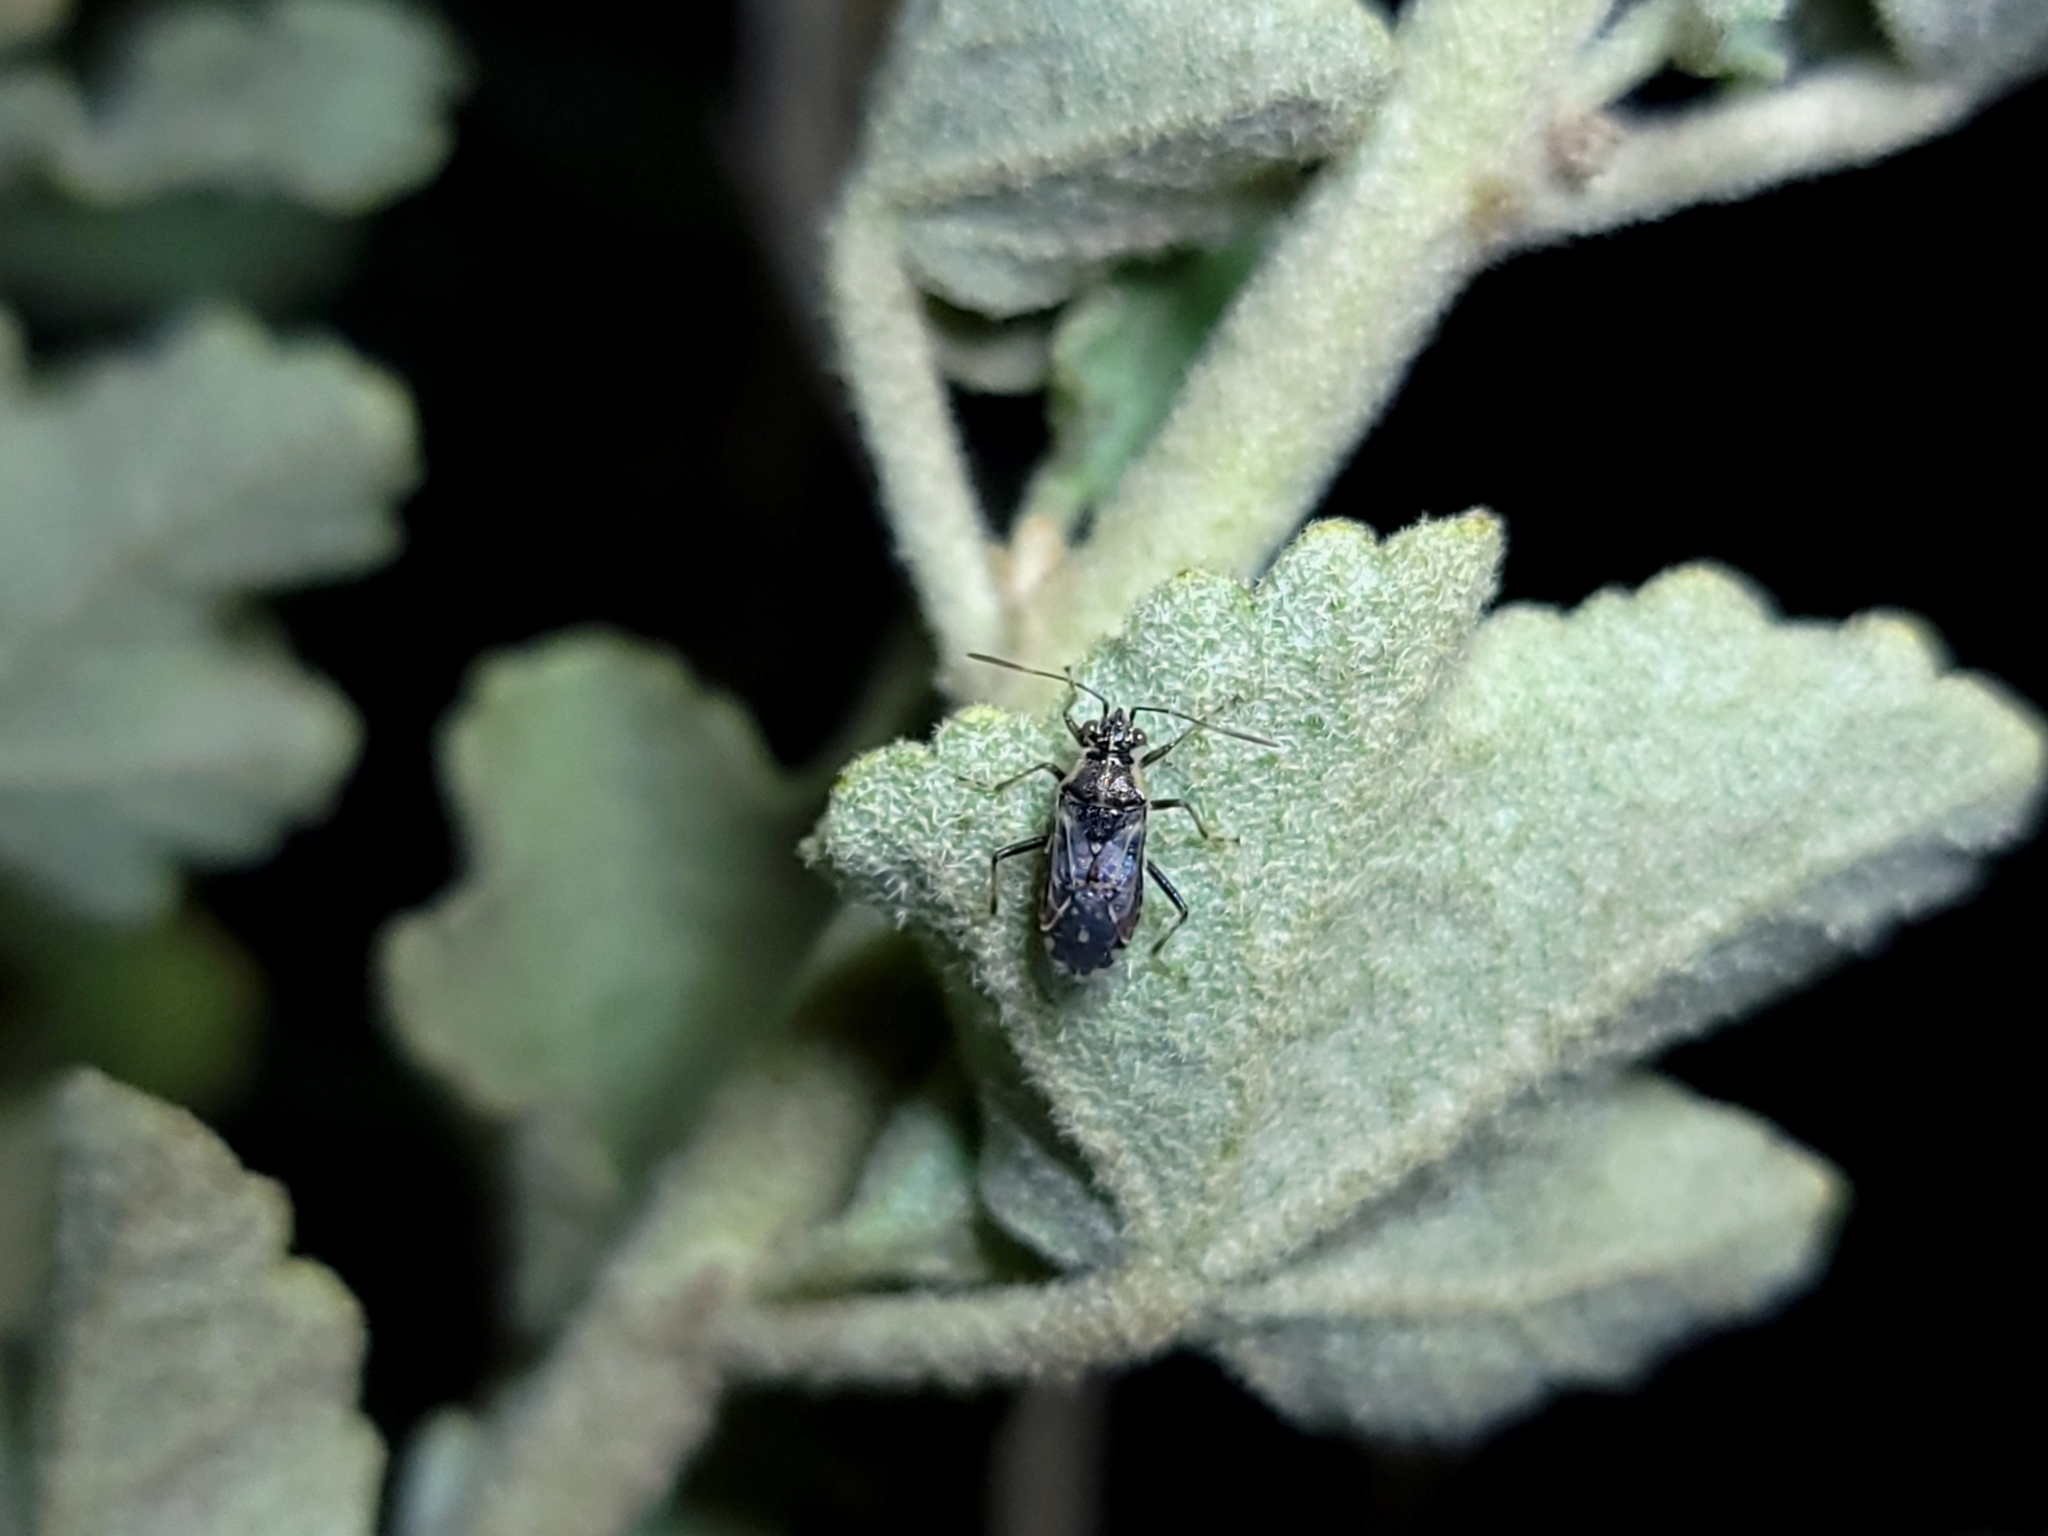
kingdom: Animalia
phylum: Arthropoda
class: Insecta
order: Hemiptera
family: Rhopalidae
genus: Liorhyssus
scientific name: Liorhyssus hyalinus
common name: Scentless plant bug
